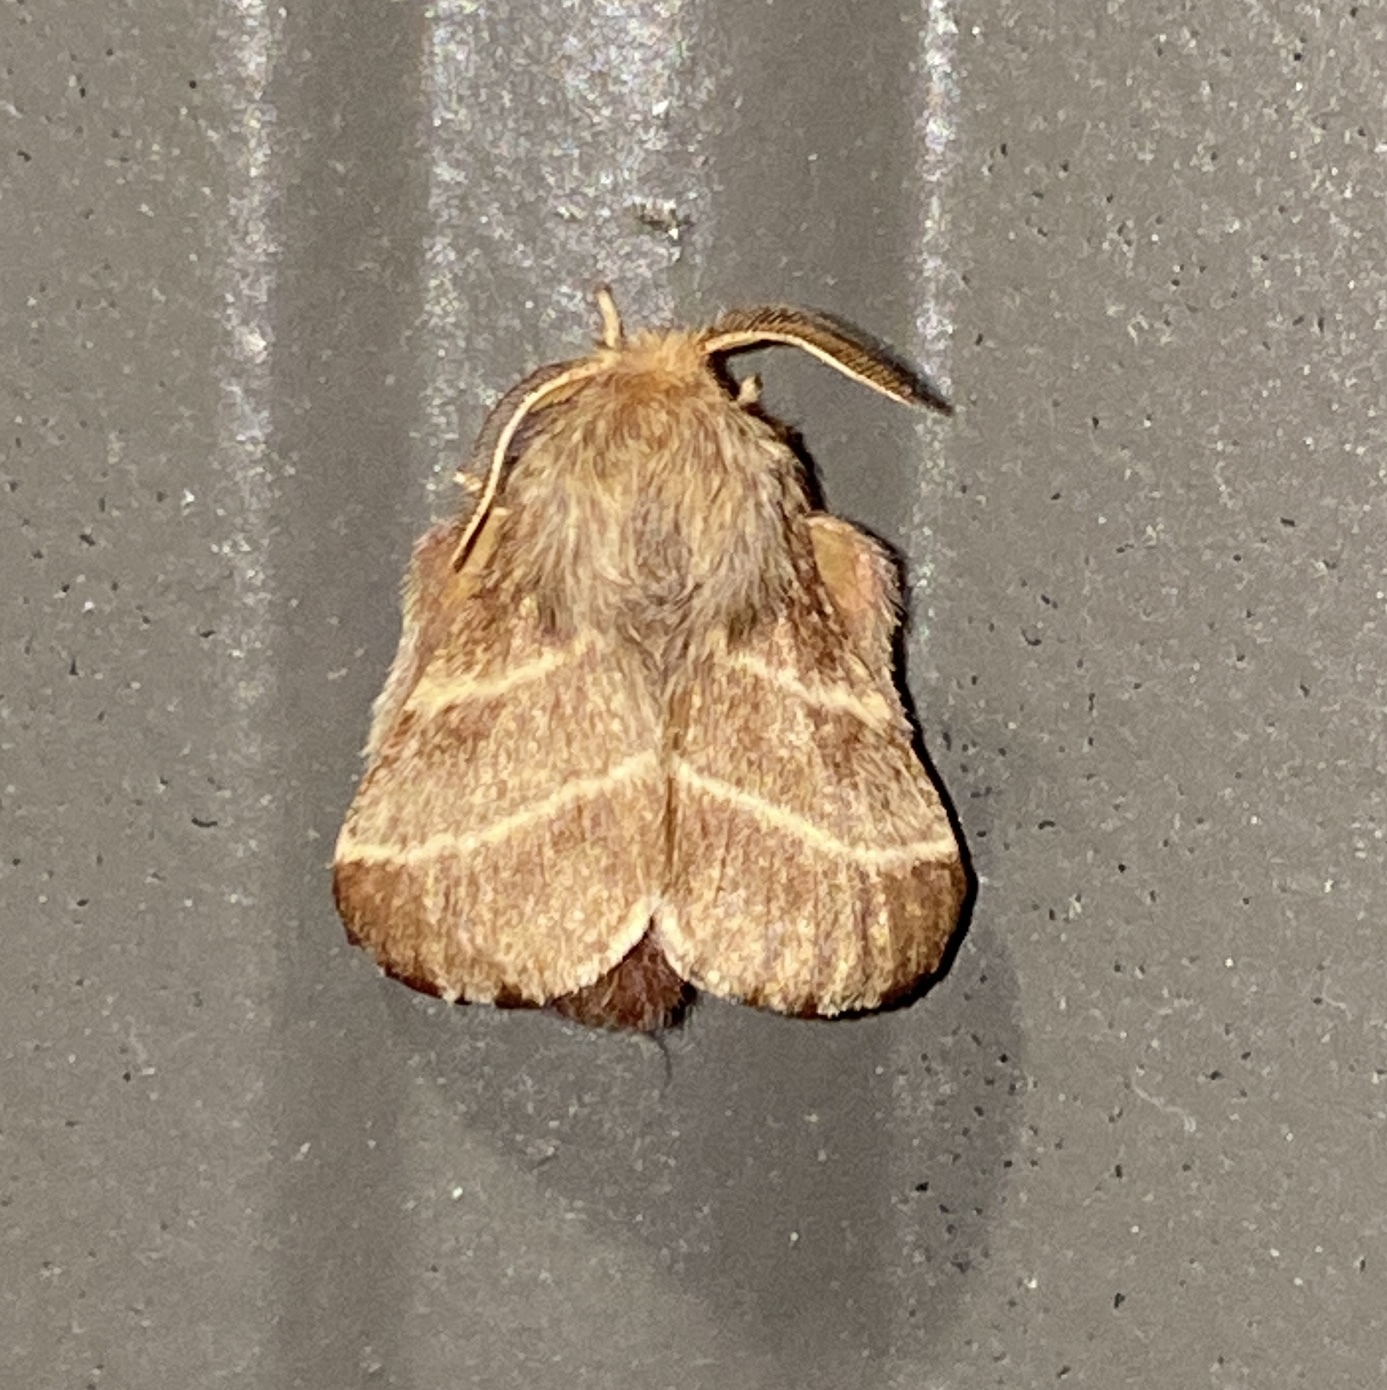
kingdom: Animalia
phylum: Arthropoda
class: Insecta
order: Lepidoptera
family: Lasiocampidae
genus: Malacosoma
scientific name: Malacosoma americana
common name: Eastern tent caterpillar moth
